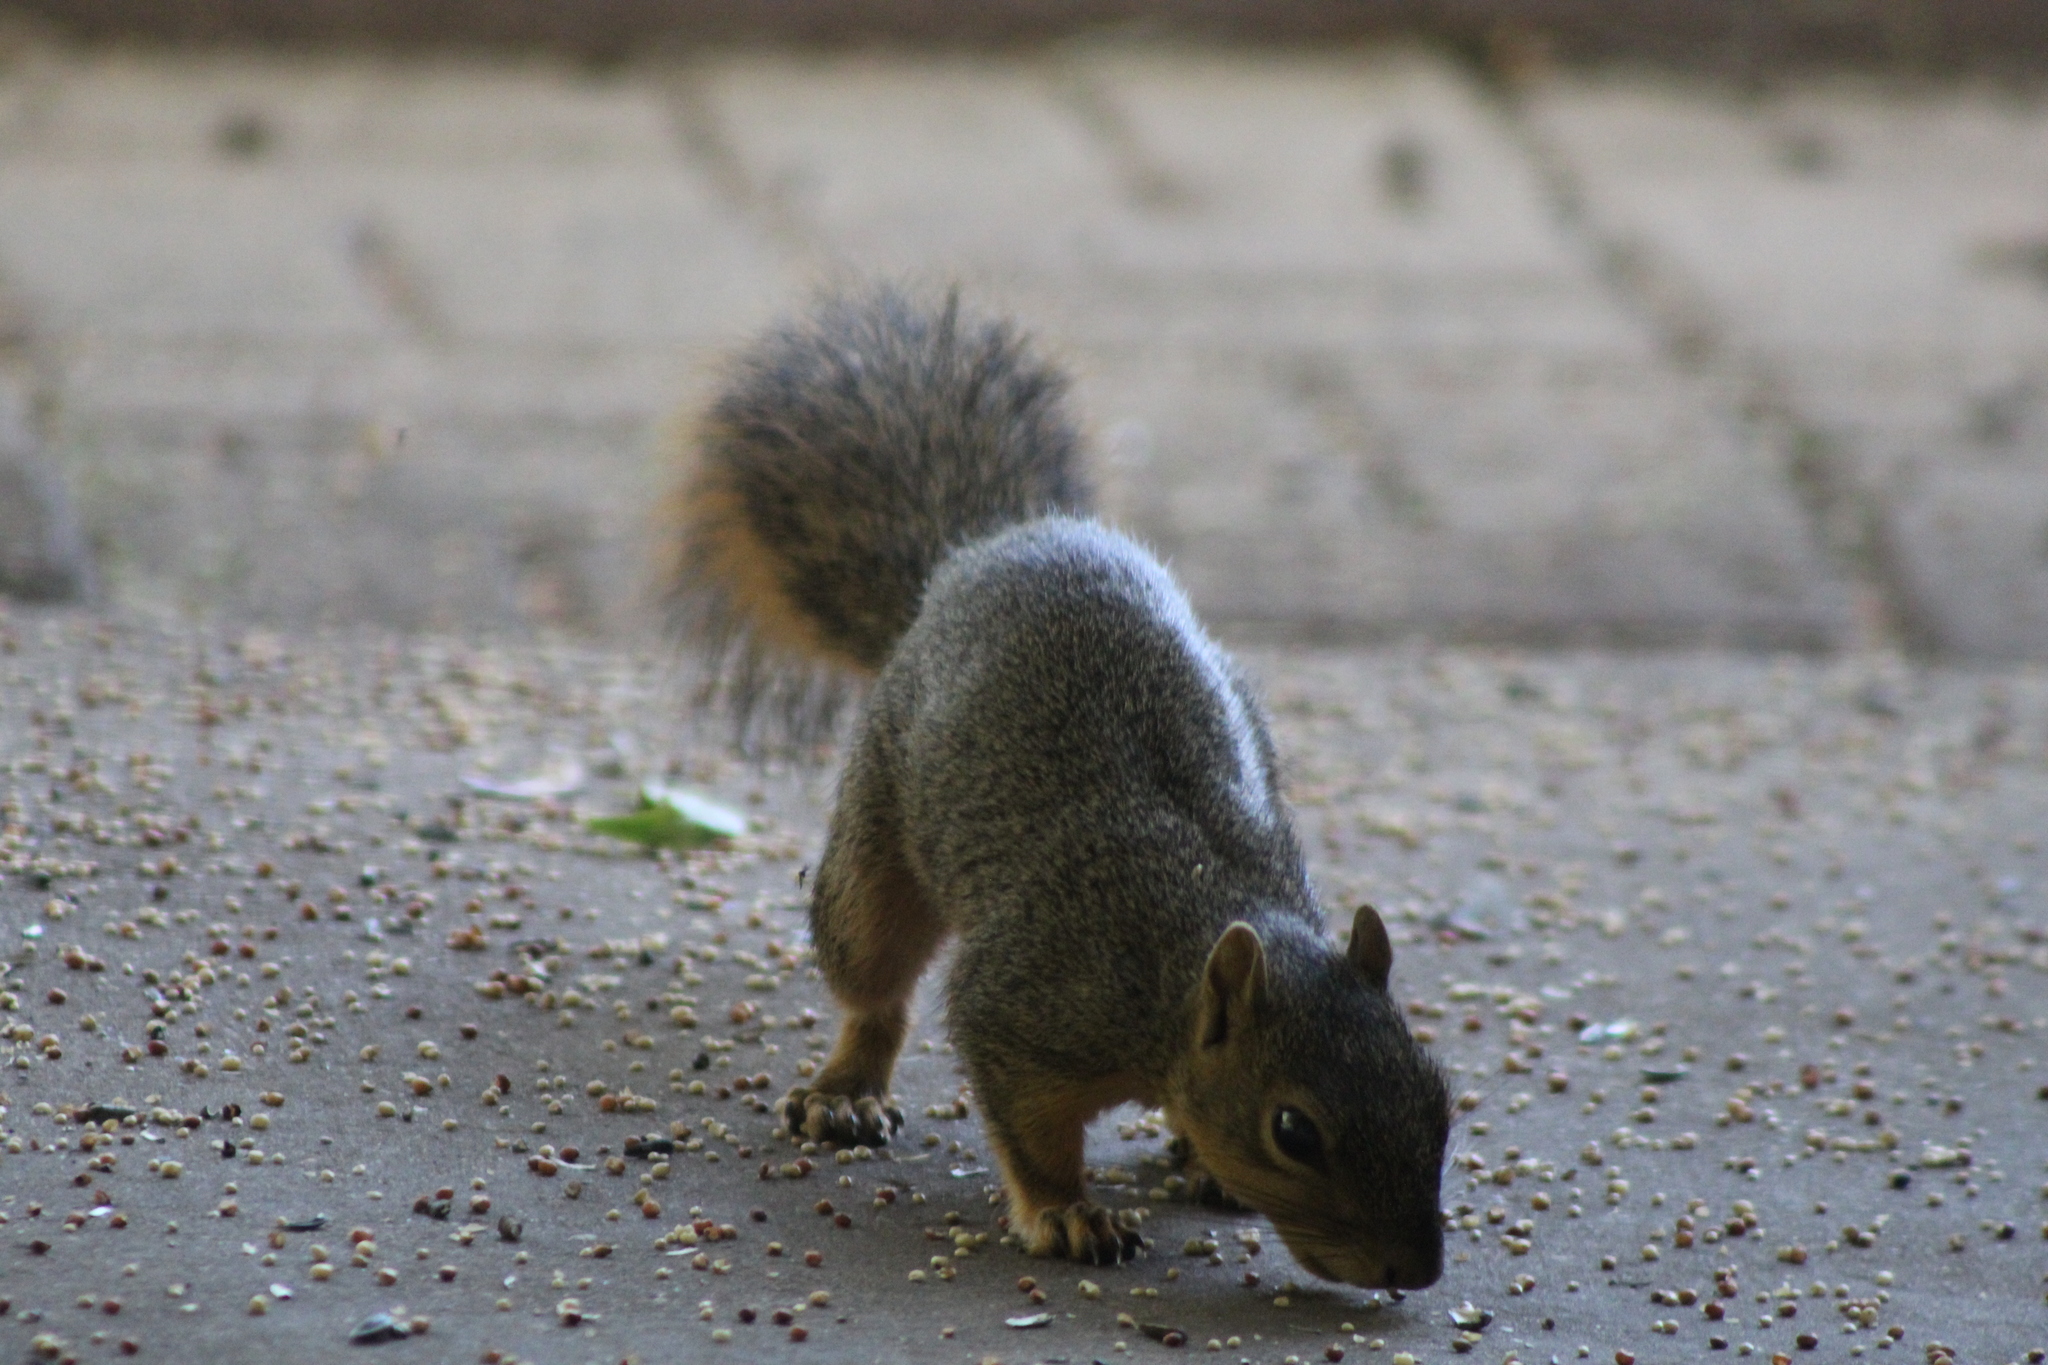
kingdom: Animalia
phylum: Chordata
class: Mammalia
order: Rodentia
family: Sciuridae
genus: Sciurus
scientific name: Sciurus niger
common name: Fox squirrel
